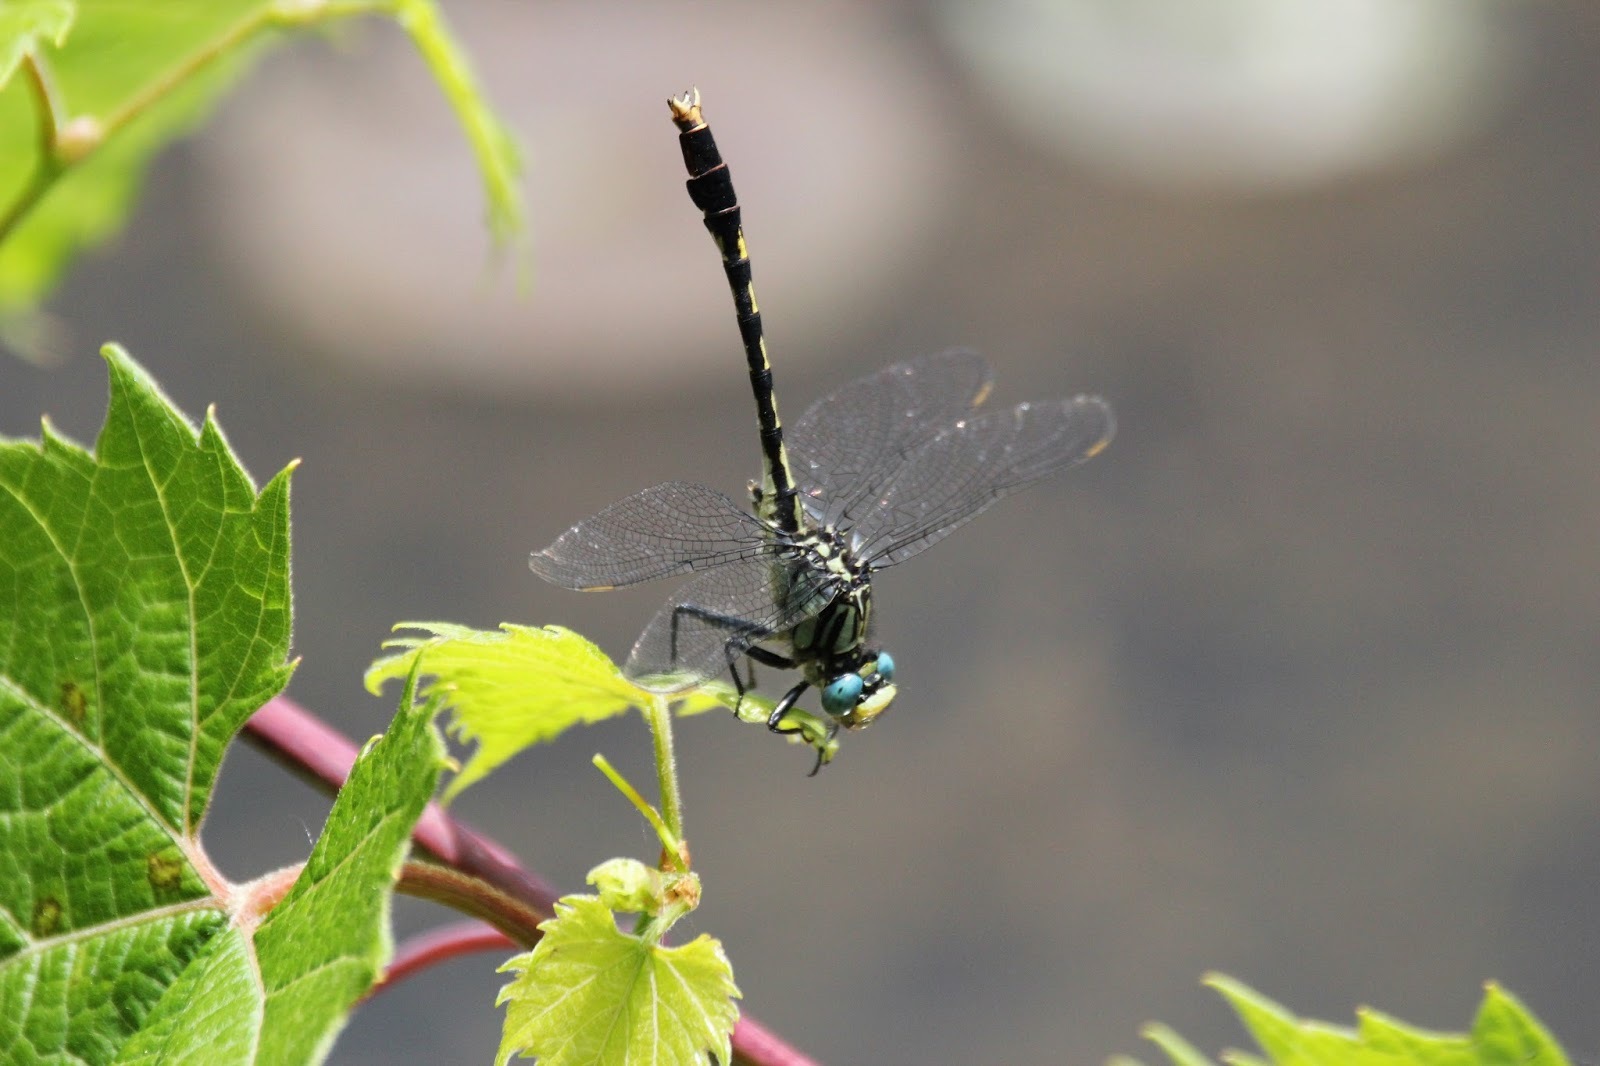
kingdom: Animalia
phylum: Arthropoda
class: Insecta
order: Odonata
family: Gomphidae
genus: Arigomphus
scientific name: Arigomphus villosipes
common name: Unicorn clubtail
